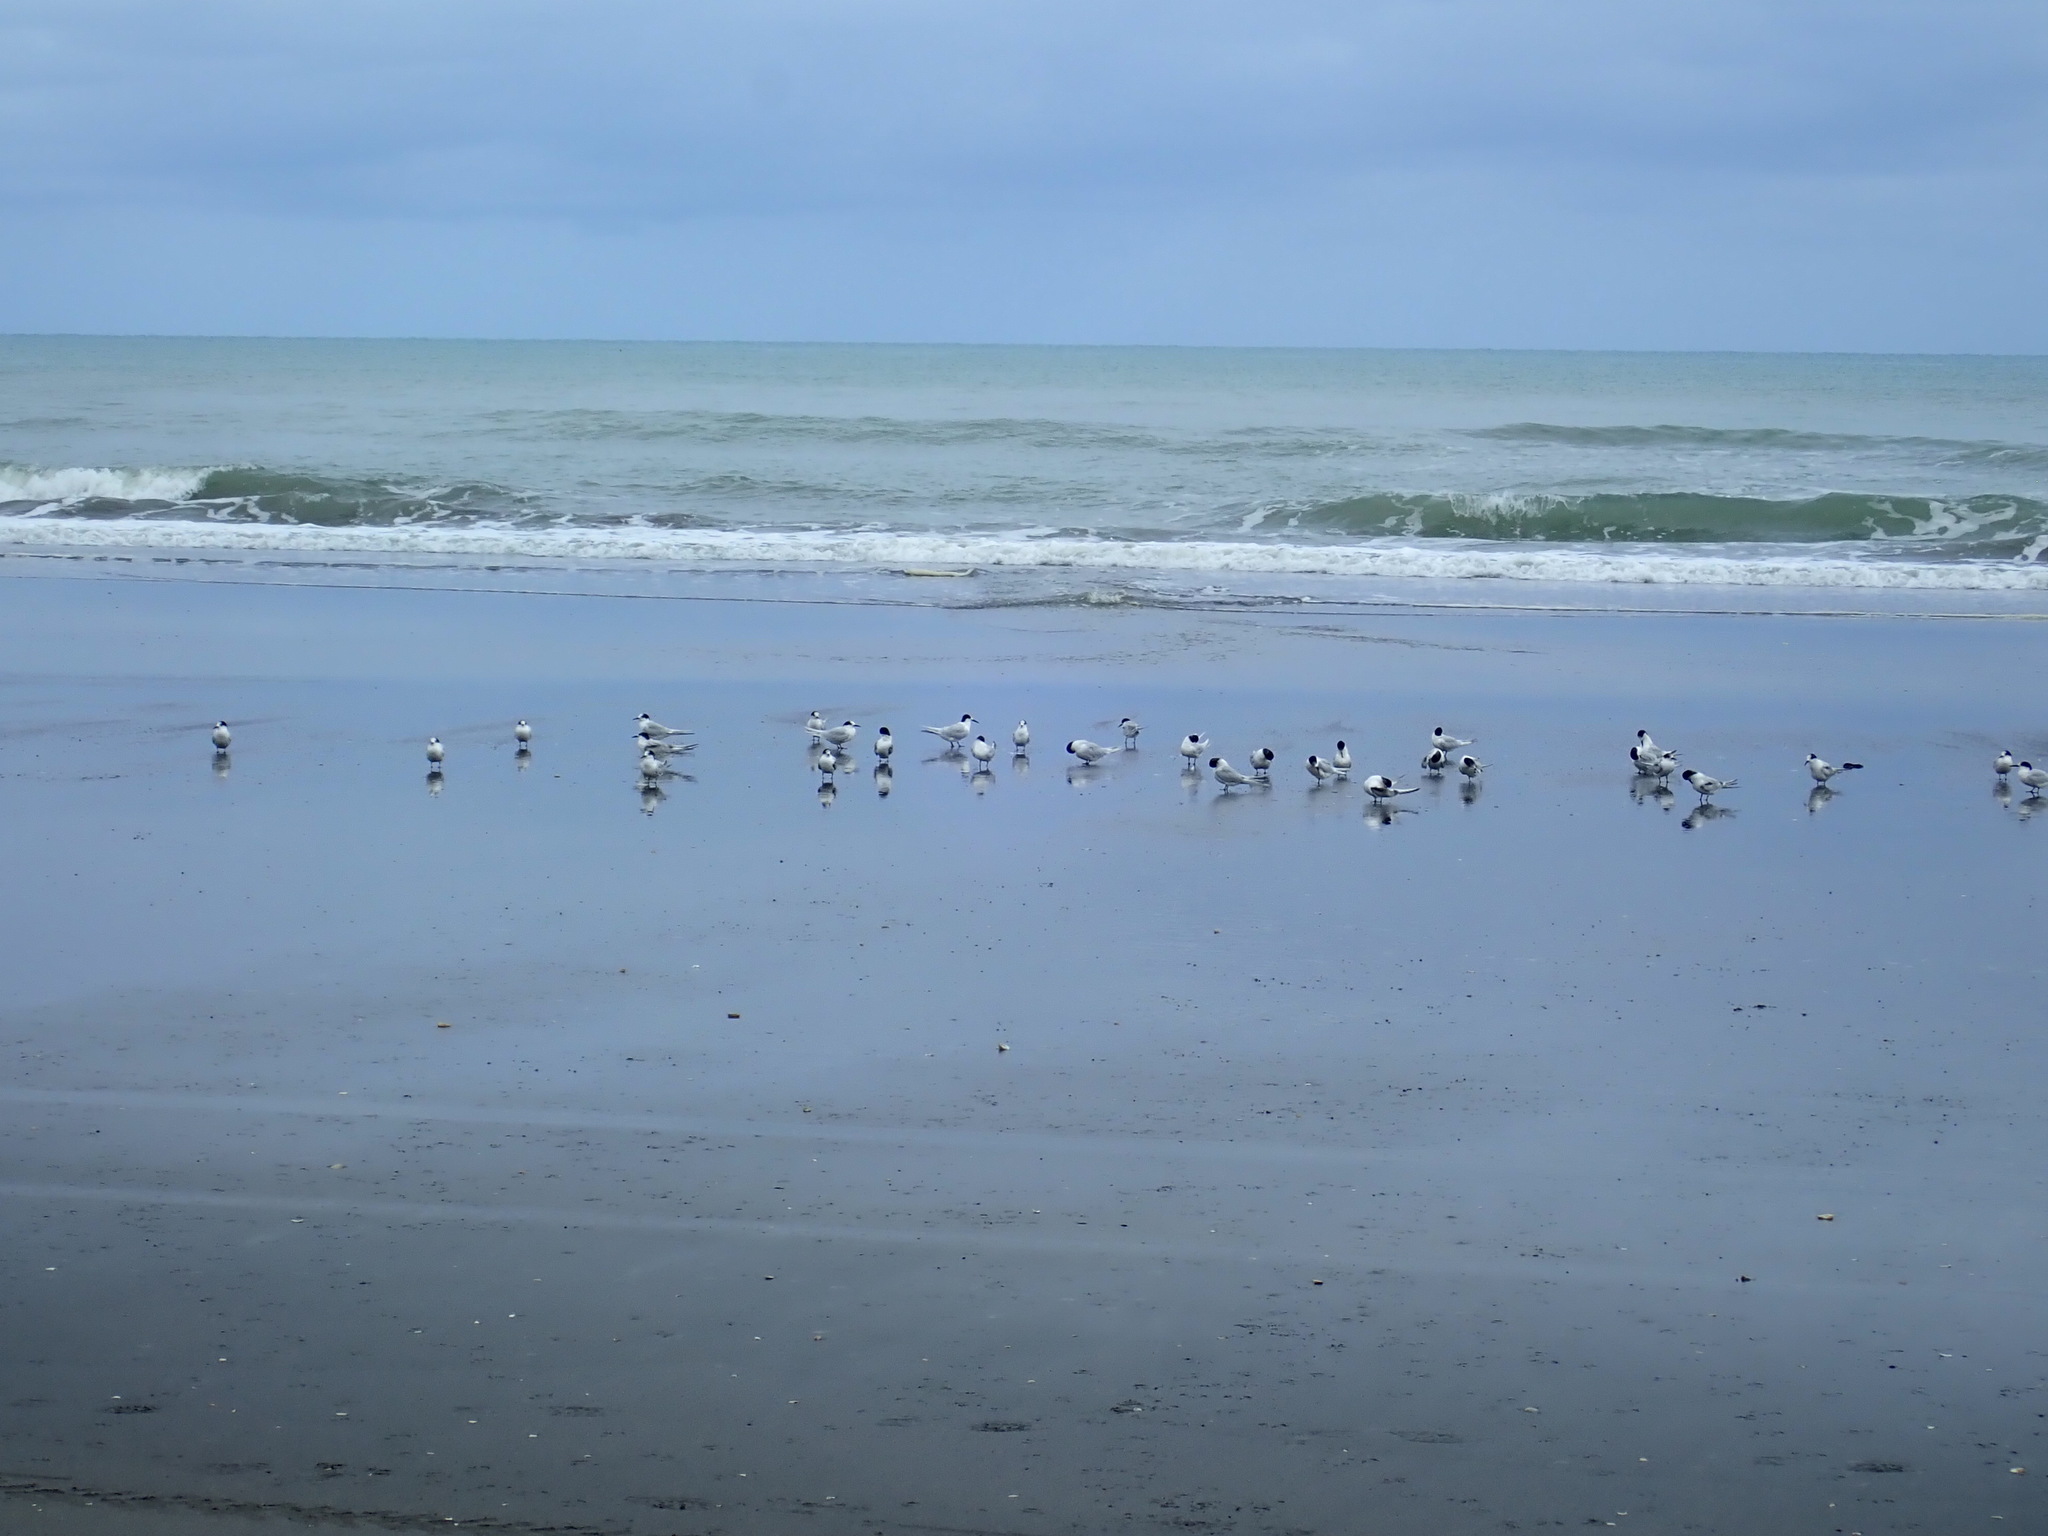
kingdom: Animalia
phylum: Chordata
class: Aves
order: Charadriiformes
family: Laridae
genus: Sterna
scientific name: Sterna striata
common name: White-fronted tern
